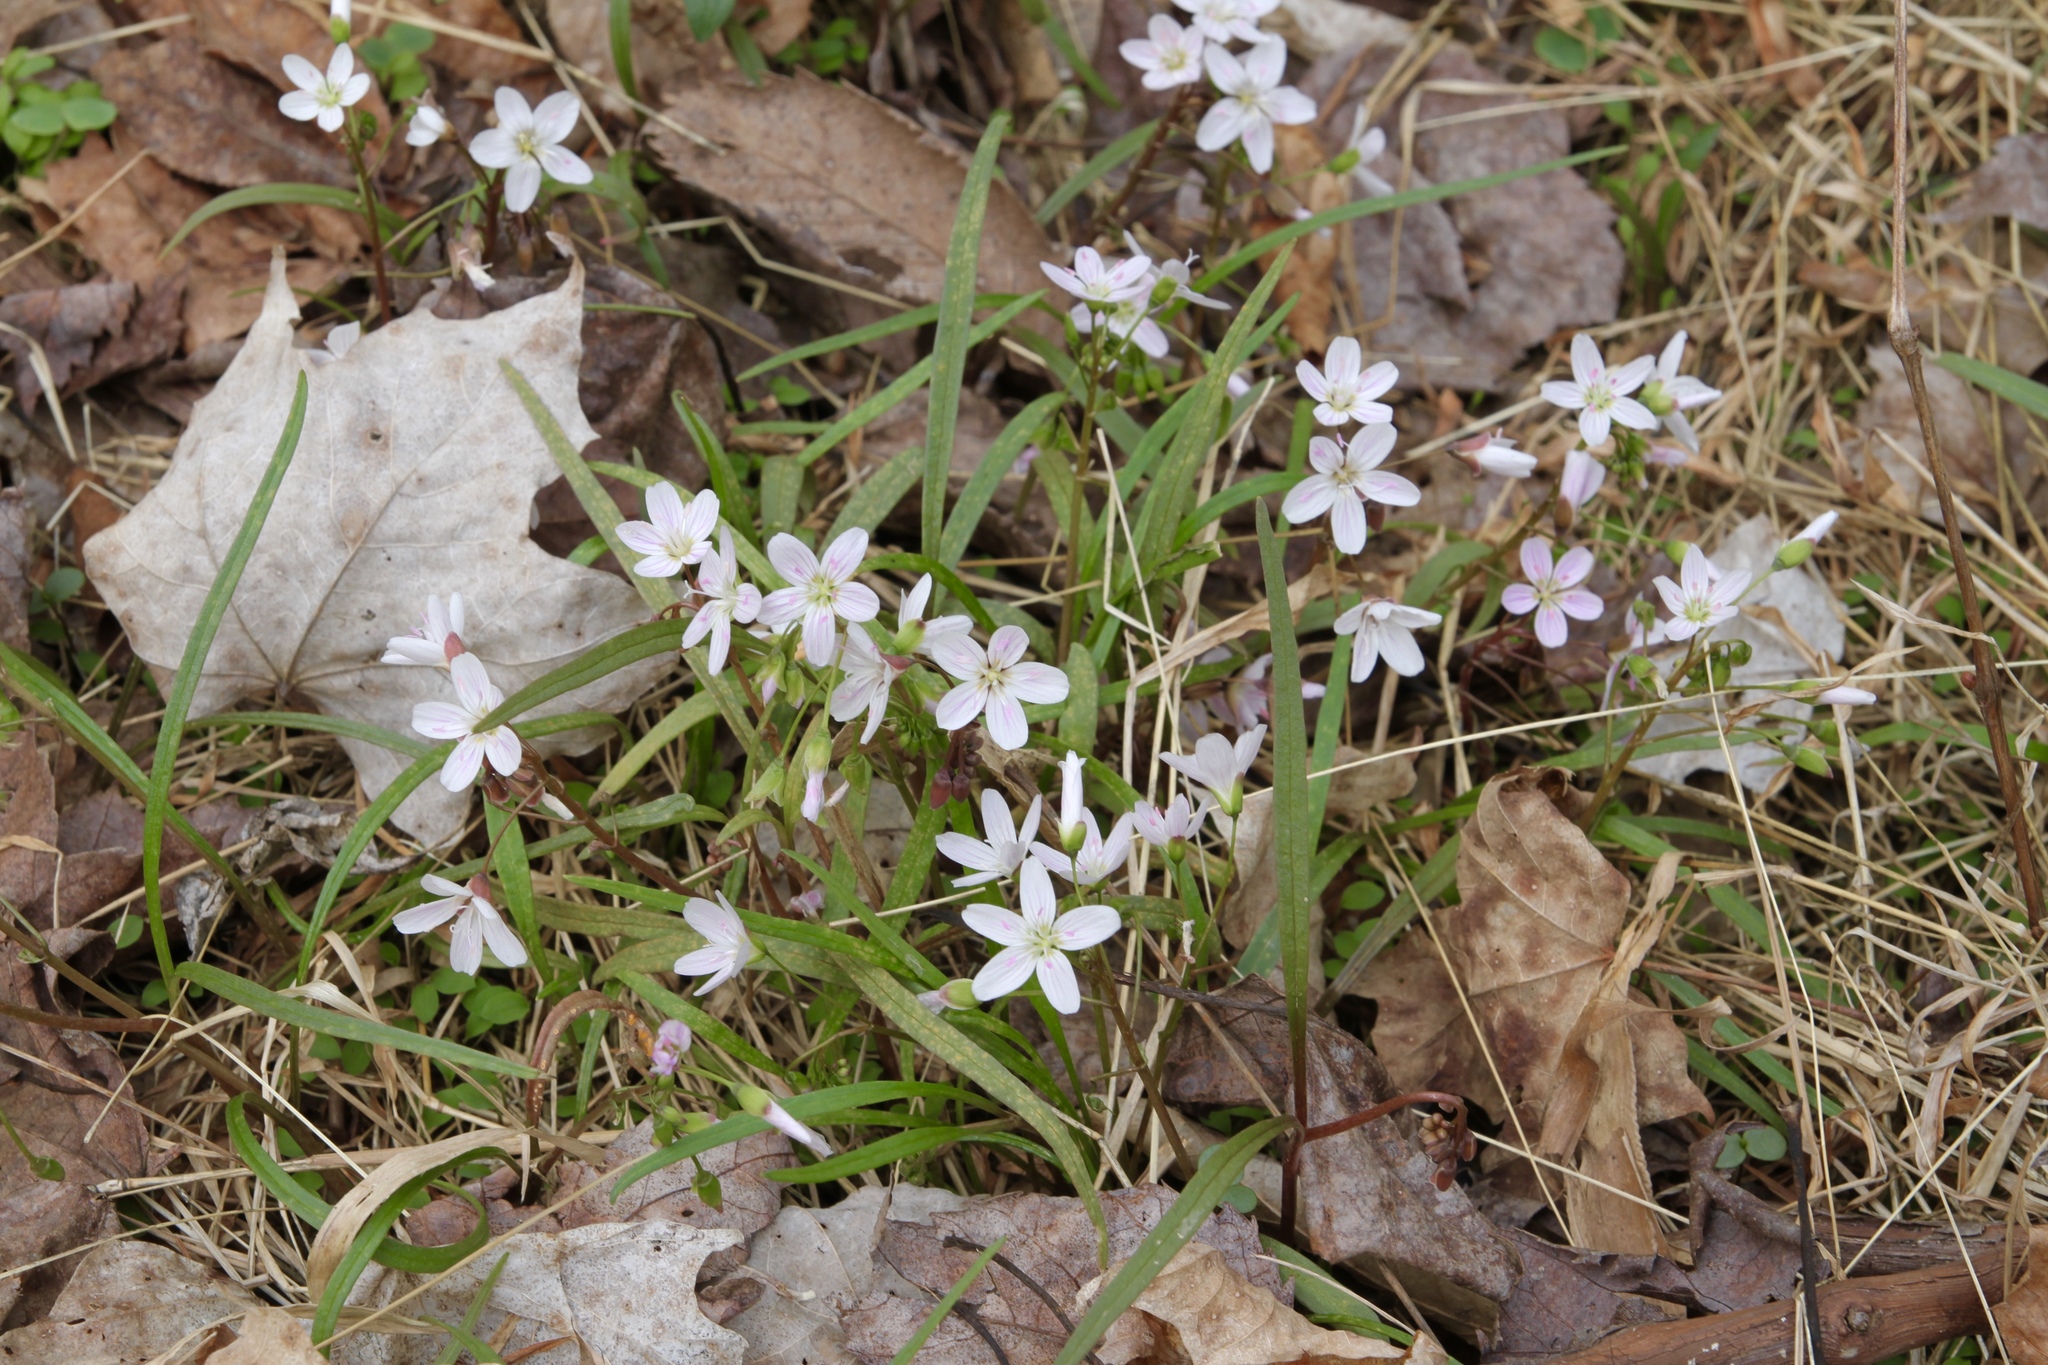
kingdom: Plantae
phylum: Tracheophyta
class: Magnoliopsida
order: Caryophyllales
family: Montiaceae
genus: Claytonia
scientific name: Claytonia virginica
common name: Virginia springbeauty
